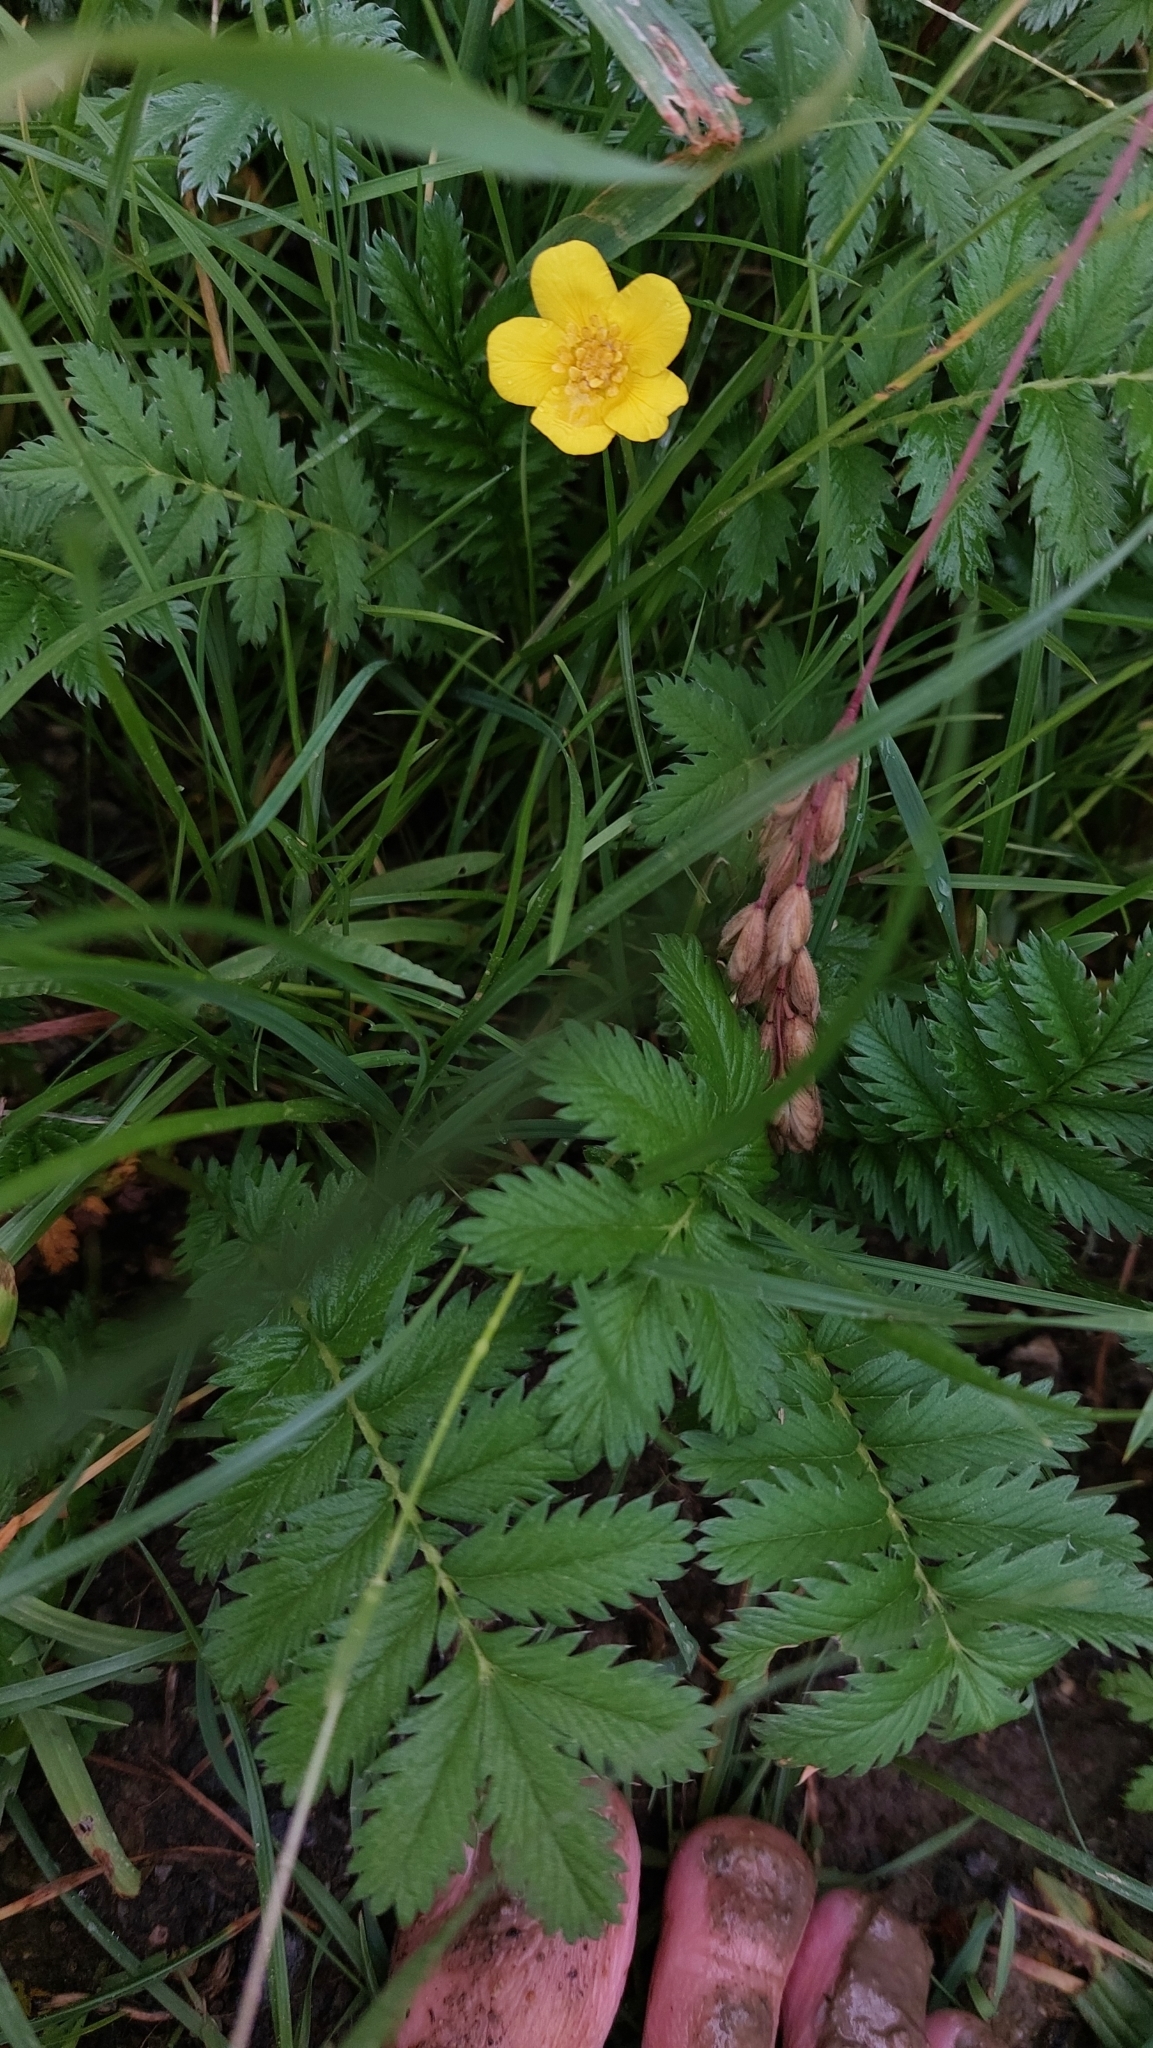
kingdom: Plantae
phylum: Tracheophyta
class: Magnoliopsida
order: Rosales
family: Rosaceae
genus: Argentina
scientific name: Argentina anserina
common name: Common silverweed
